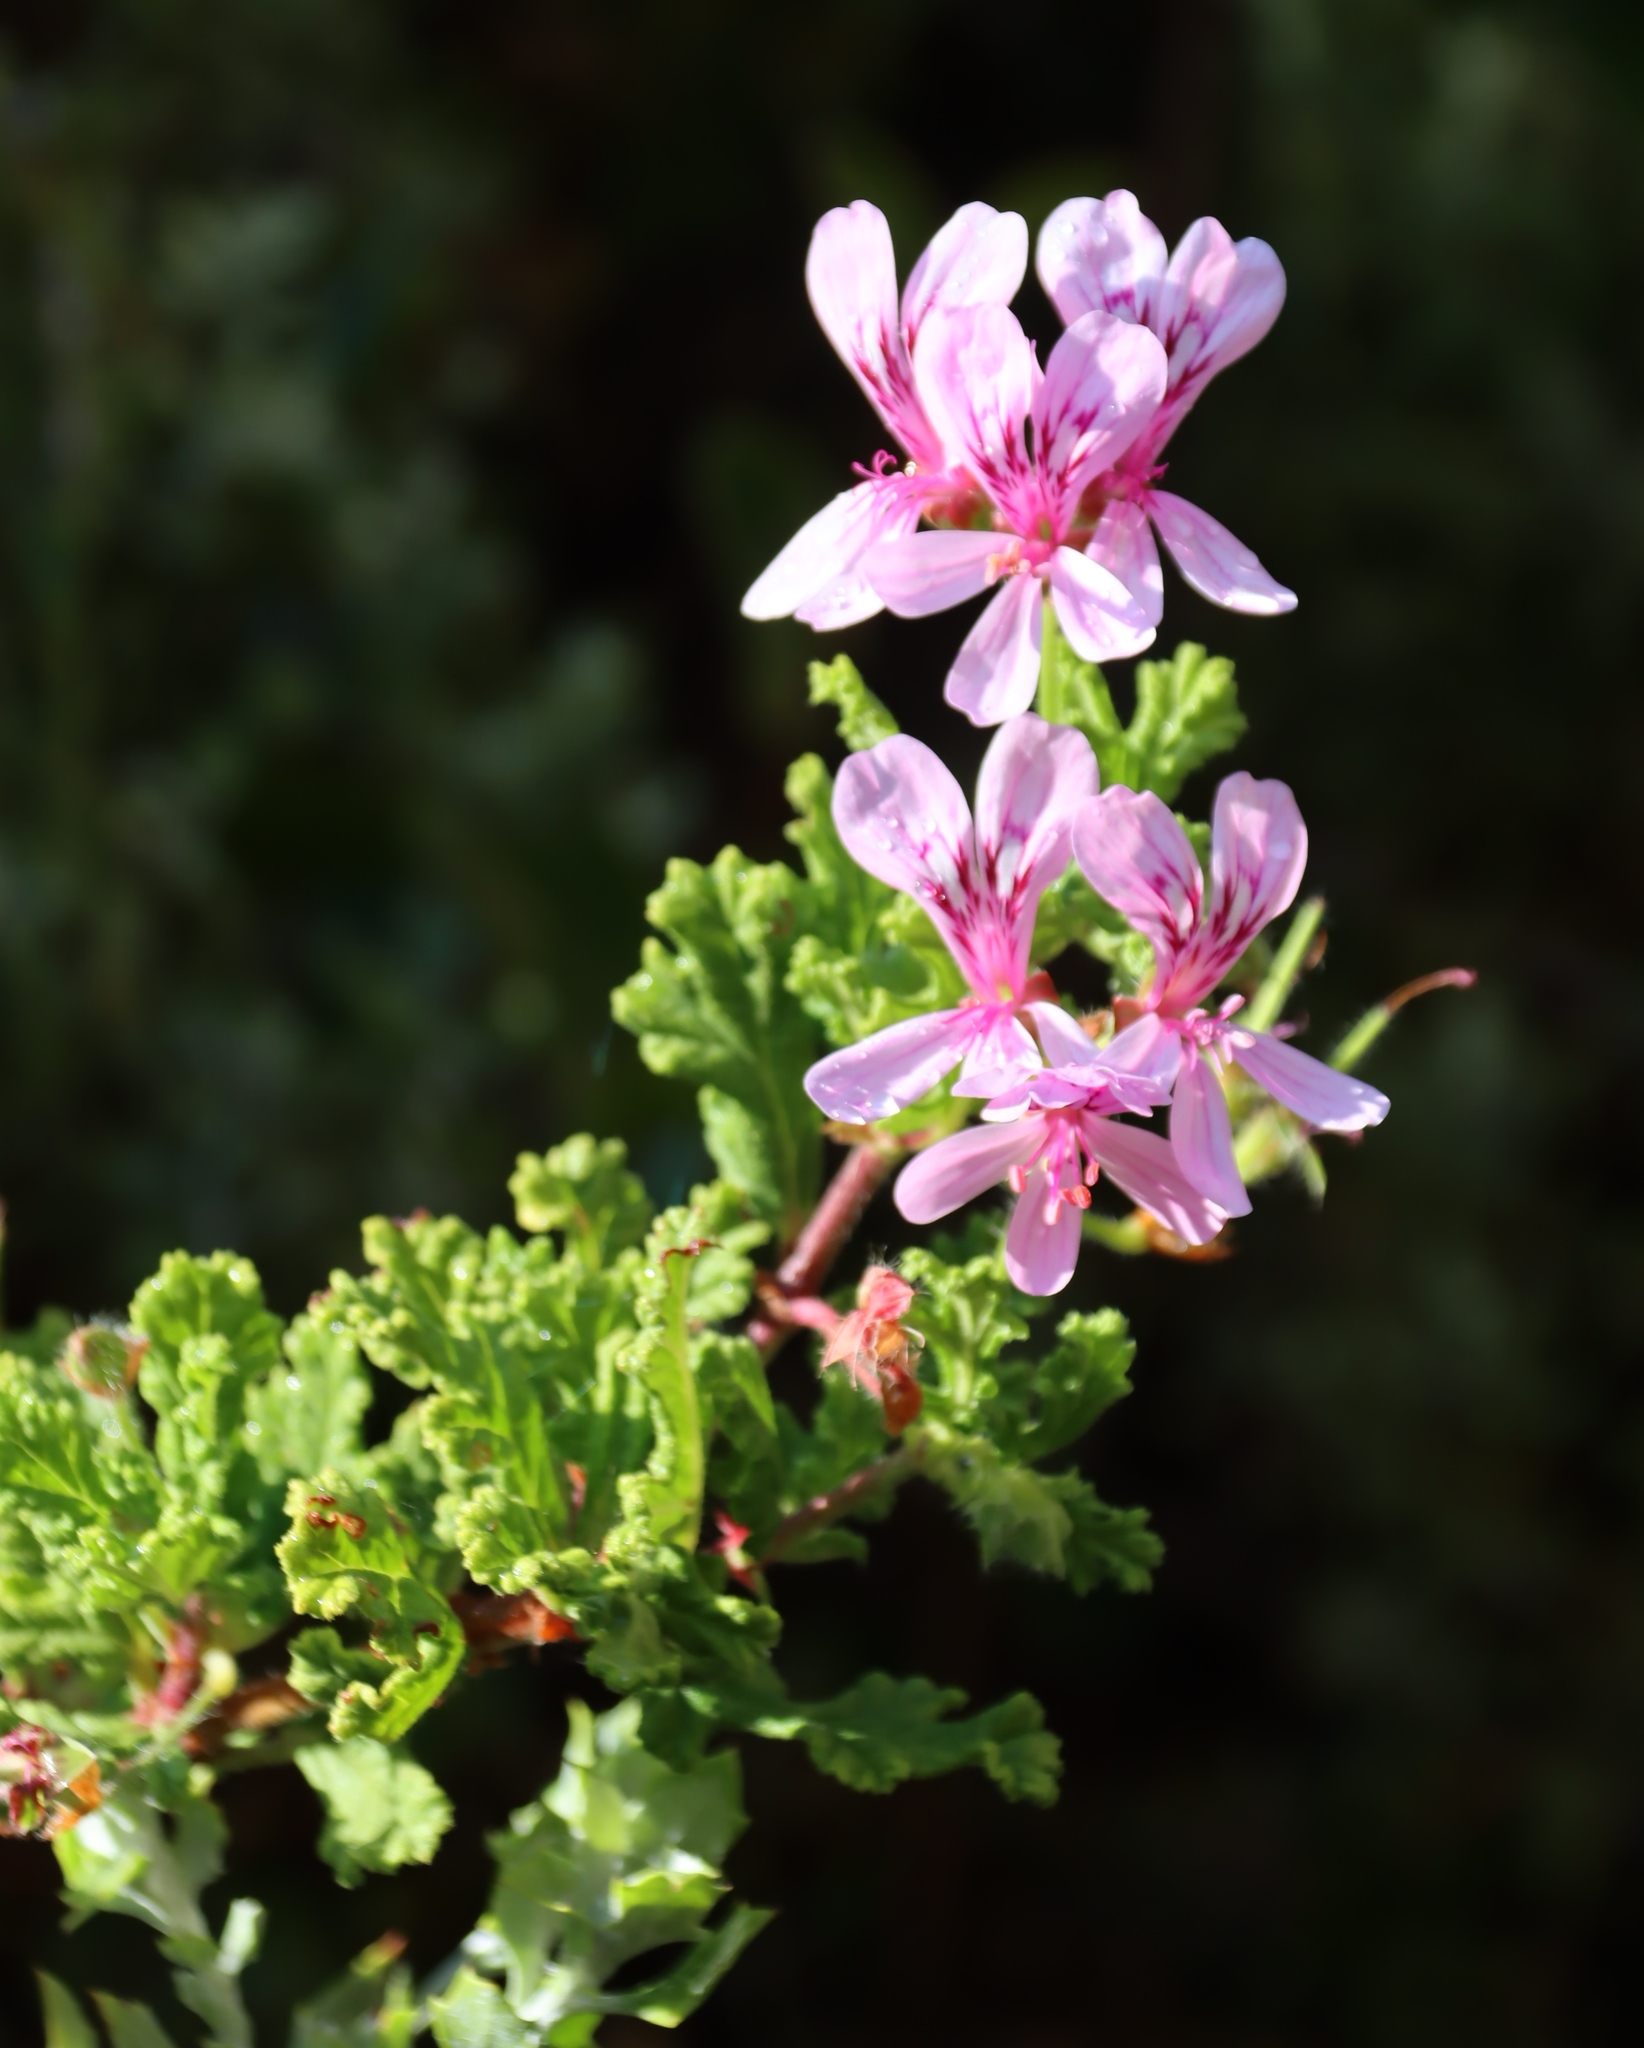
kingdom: Plantae
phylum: Tracheophyta
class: Magnoliopsida
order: Geraniales
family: Geraniaceae
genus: Pelargonium
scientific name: Pelargonium panduriforme
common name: Oakleaf garden geranium
